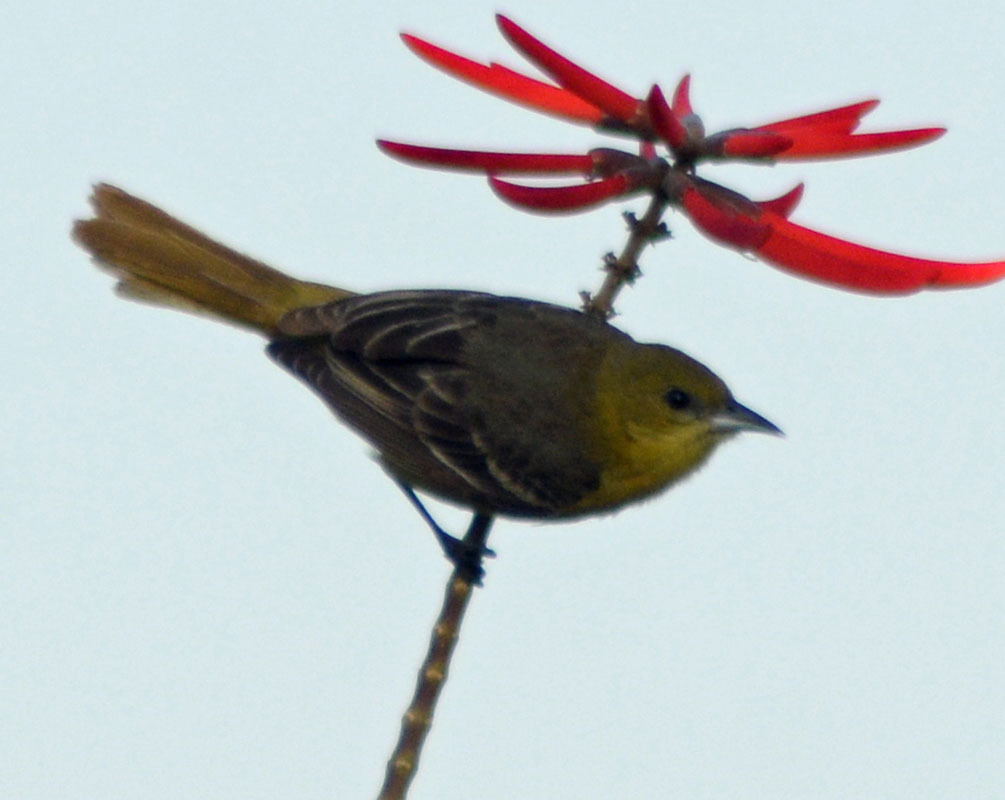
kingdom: Animalia
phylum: Chordata
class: Aves
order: Passeriformes
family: Icteridae
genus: Icterus
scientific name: Icterus spurius
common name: Orchard oriole
